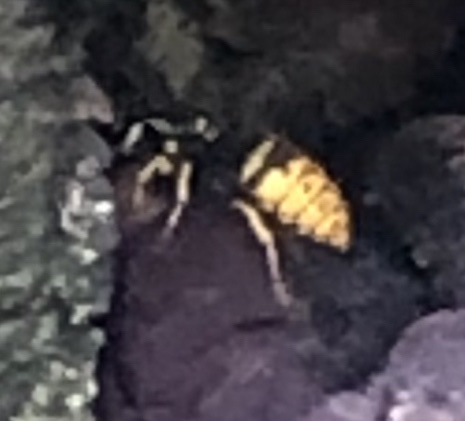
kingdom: Animalia
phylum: Arthropoda
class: Insecta
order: Hymenoptera
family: Vespidae
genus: Vespula
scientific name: Vespula
